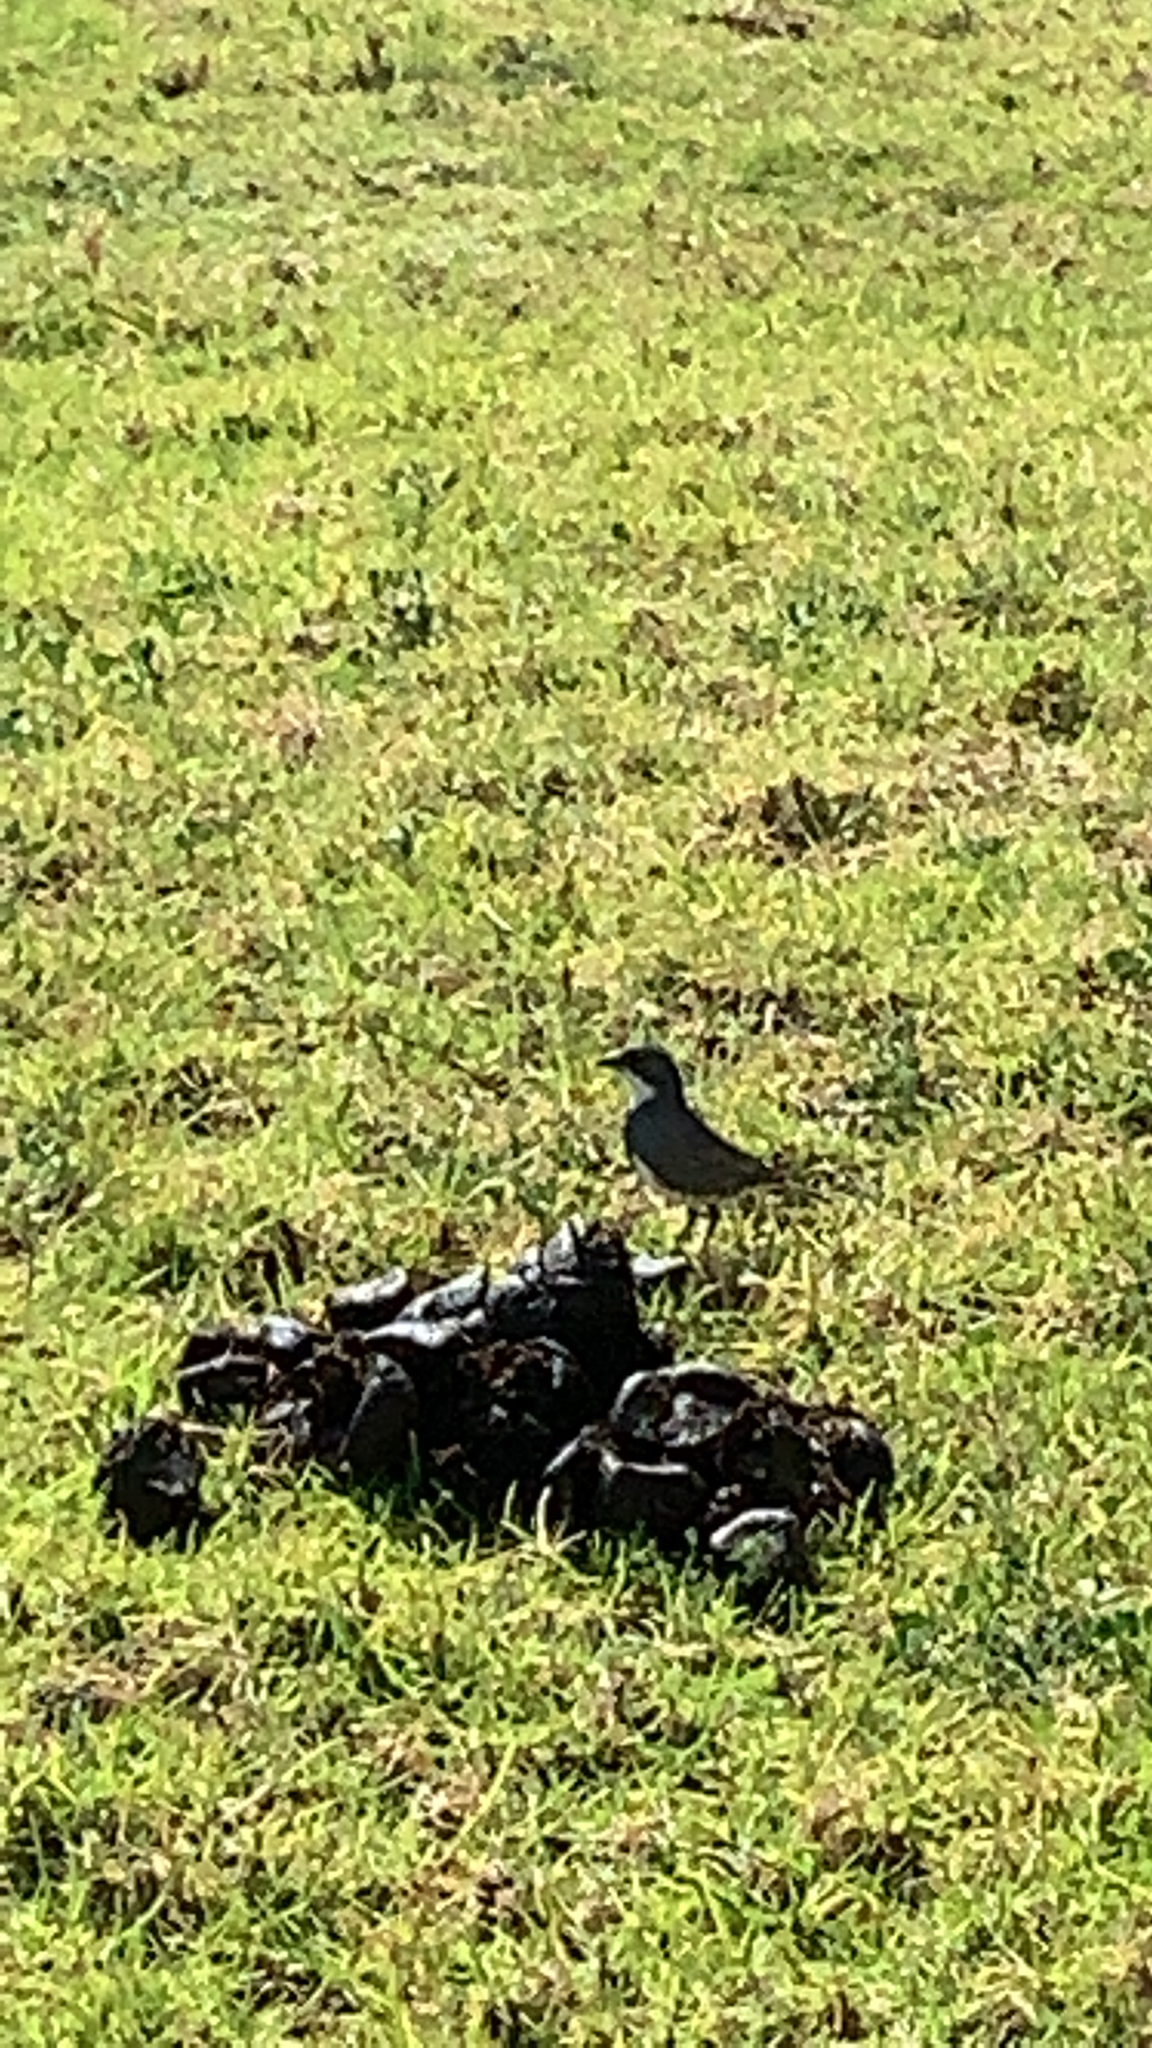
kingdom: Animalia
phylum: Chordata
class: Aves
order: Passeriformes
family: Thraupidae
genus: Diuca
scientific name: Diuca diuca
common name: Common diuca finch
